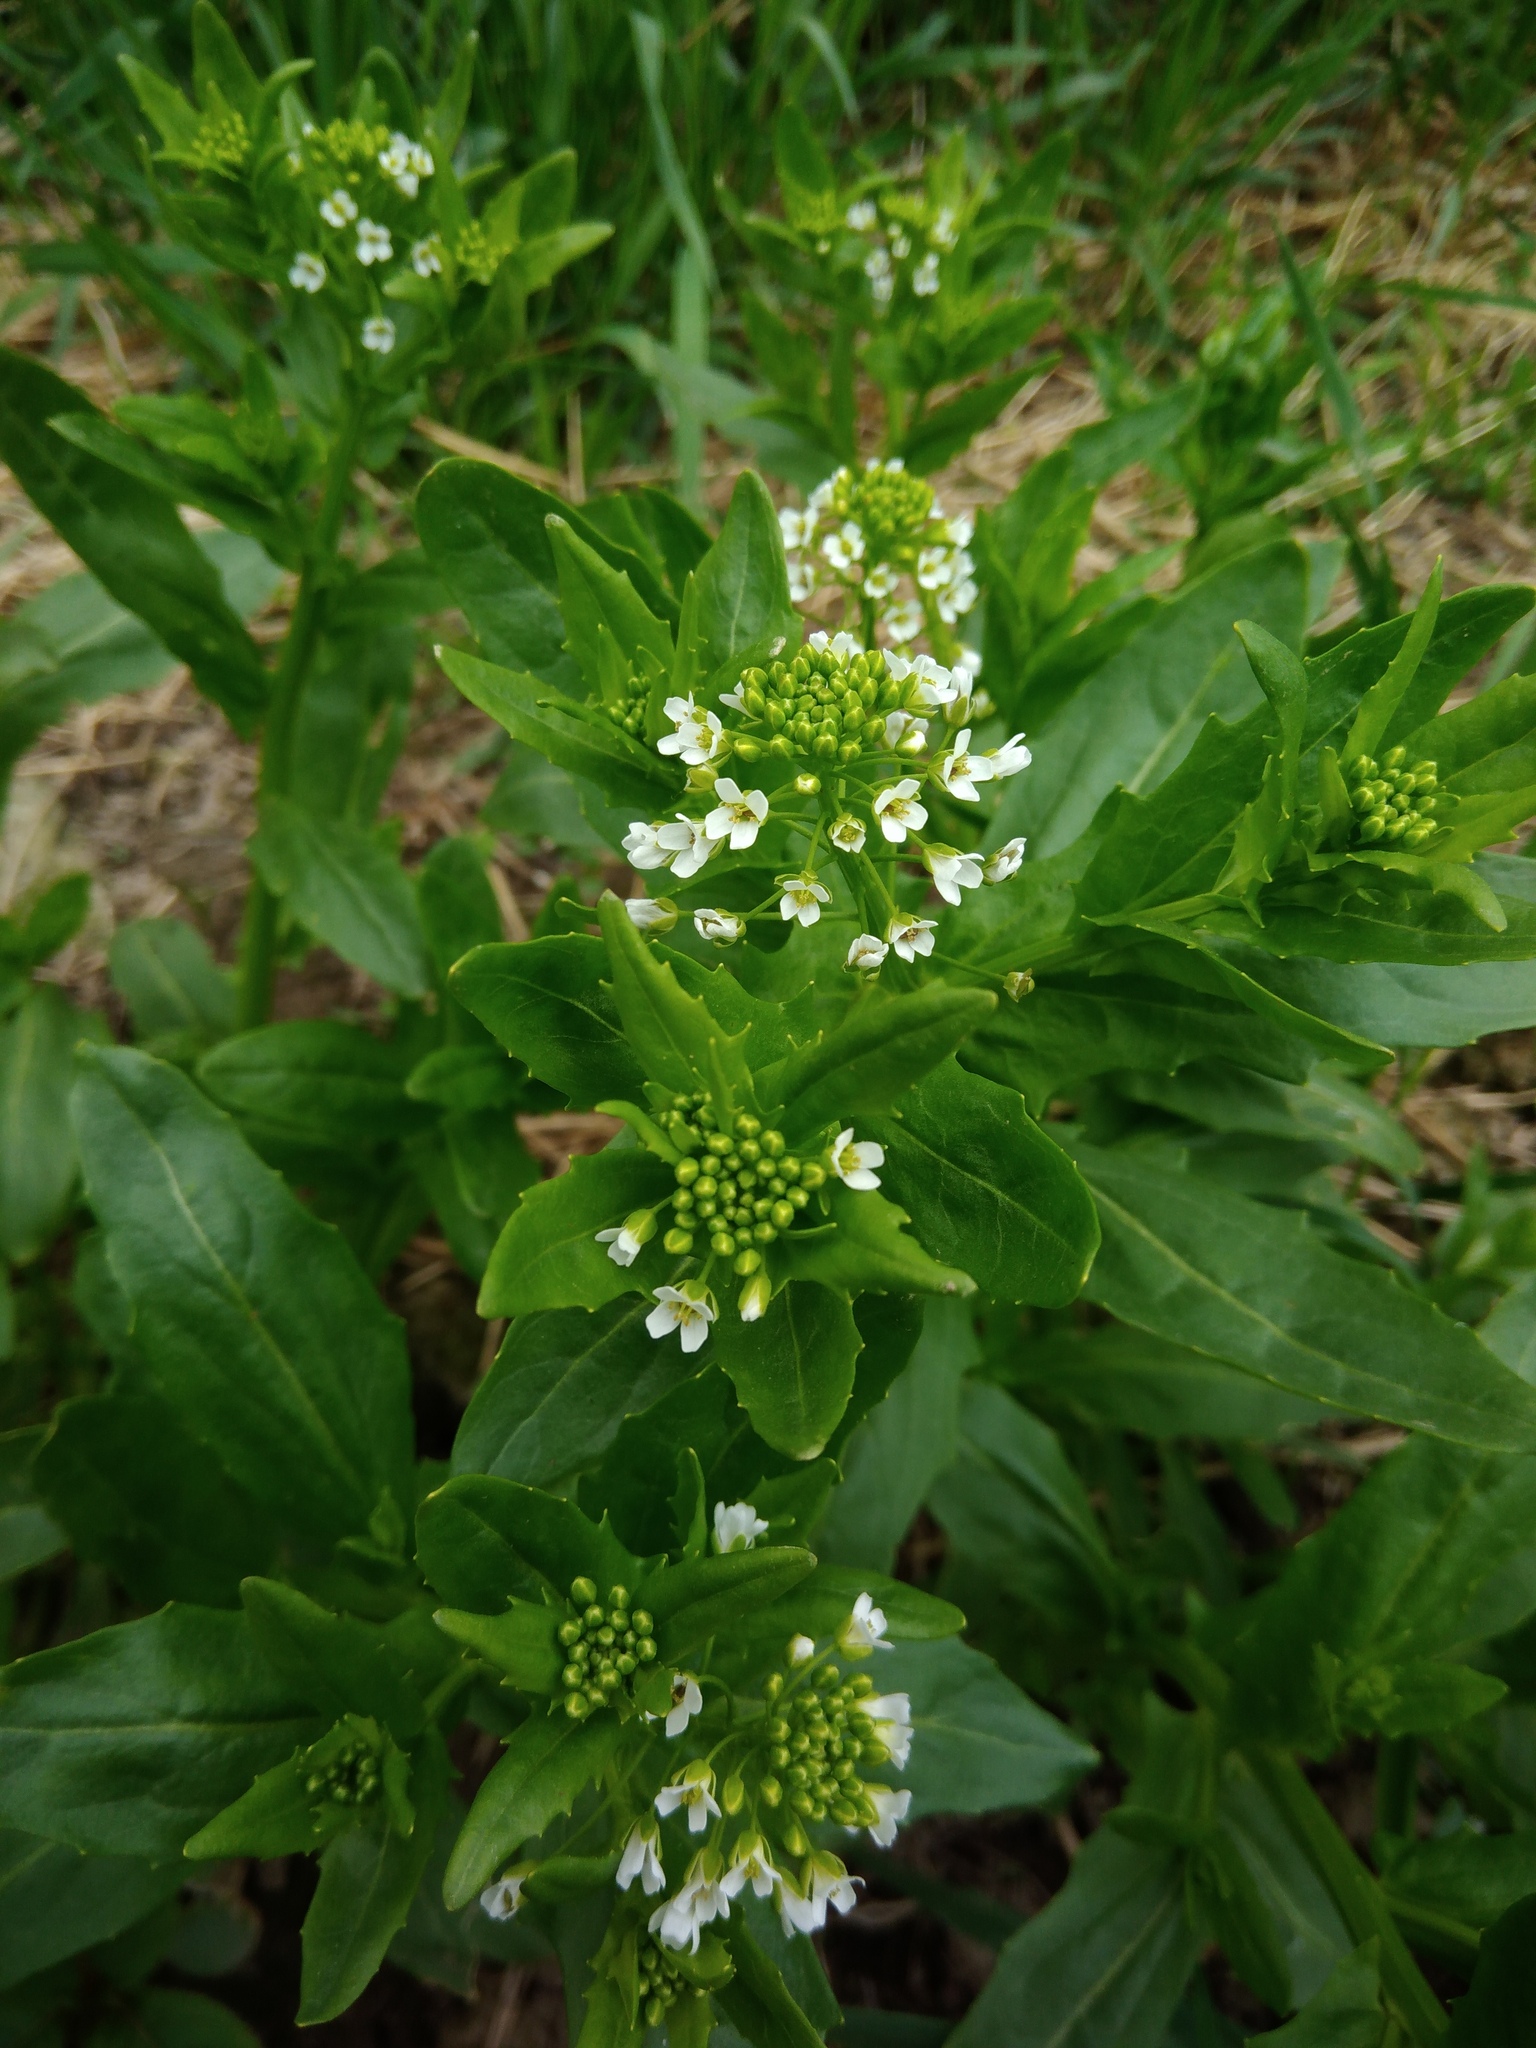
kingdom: Plantae
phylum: Tracheophyta
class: Magnoliopsida
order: Brassicales
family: Brassicaceae
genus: Thlaspi
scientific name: Thlaspi arvense
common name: Field pennycress
